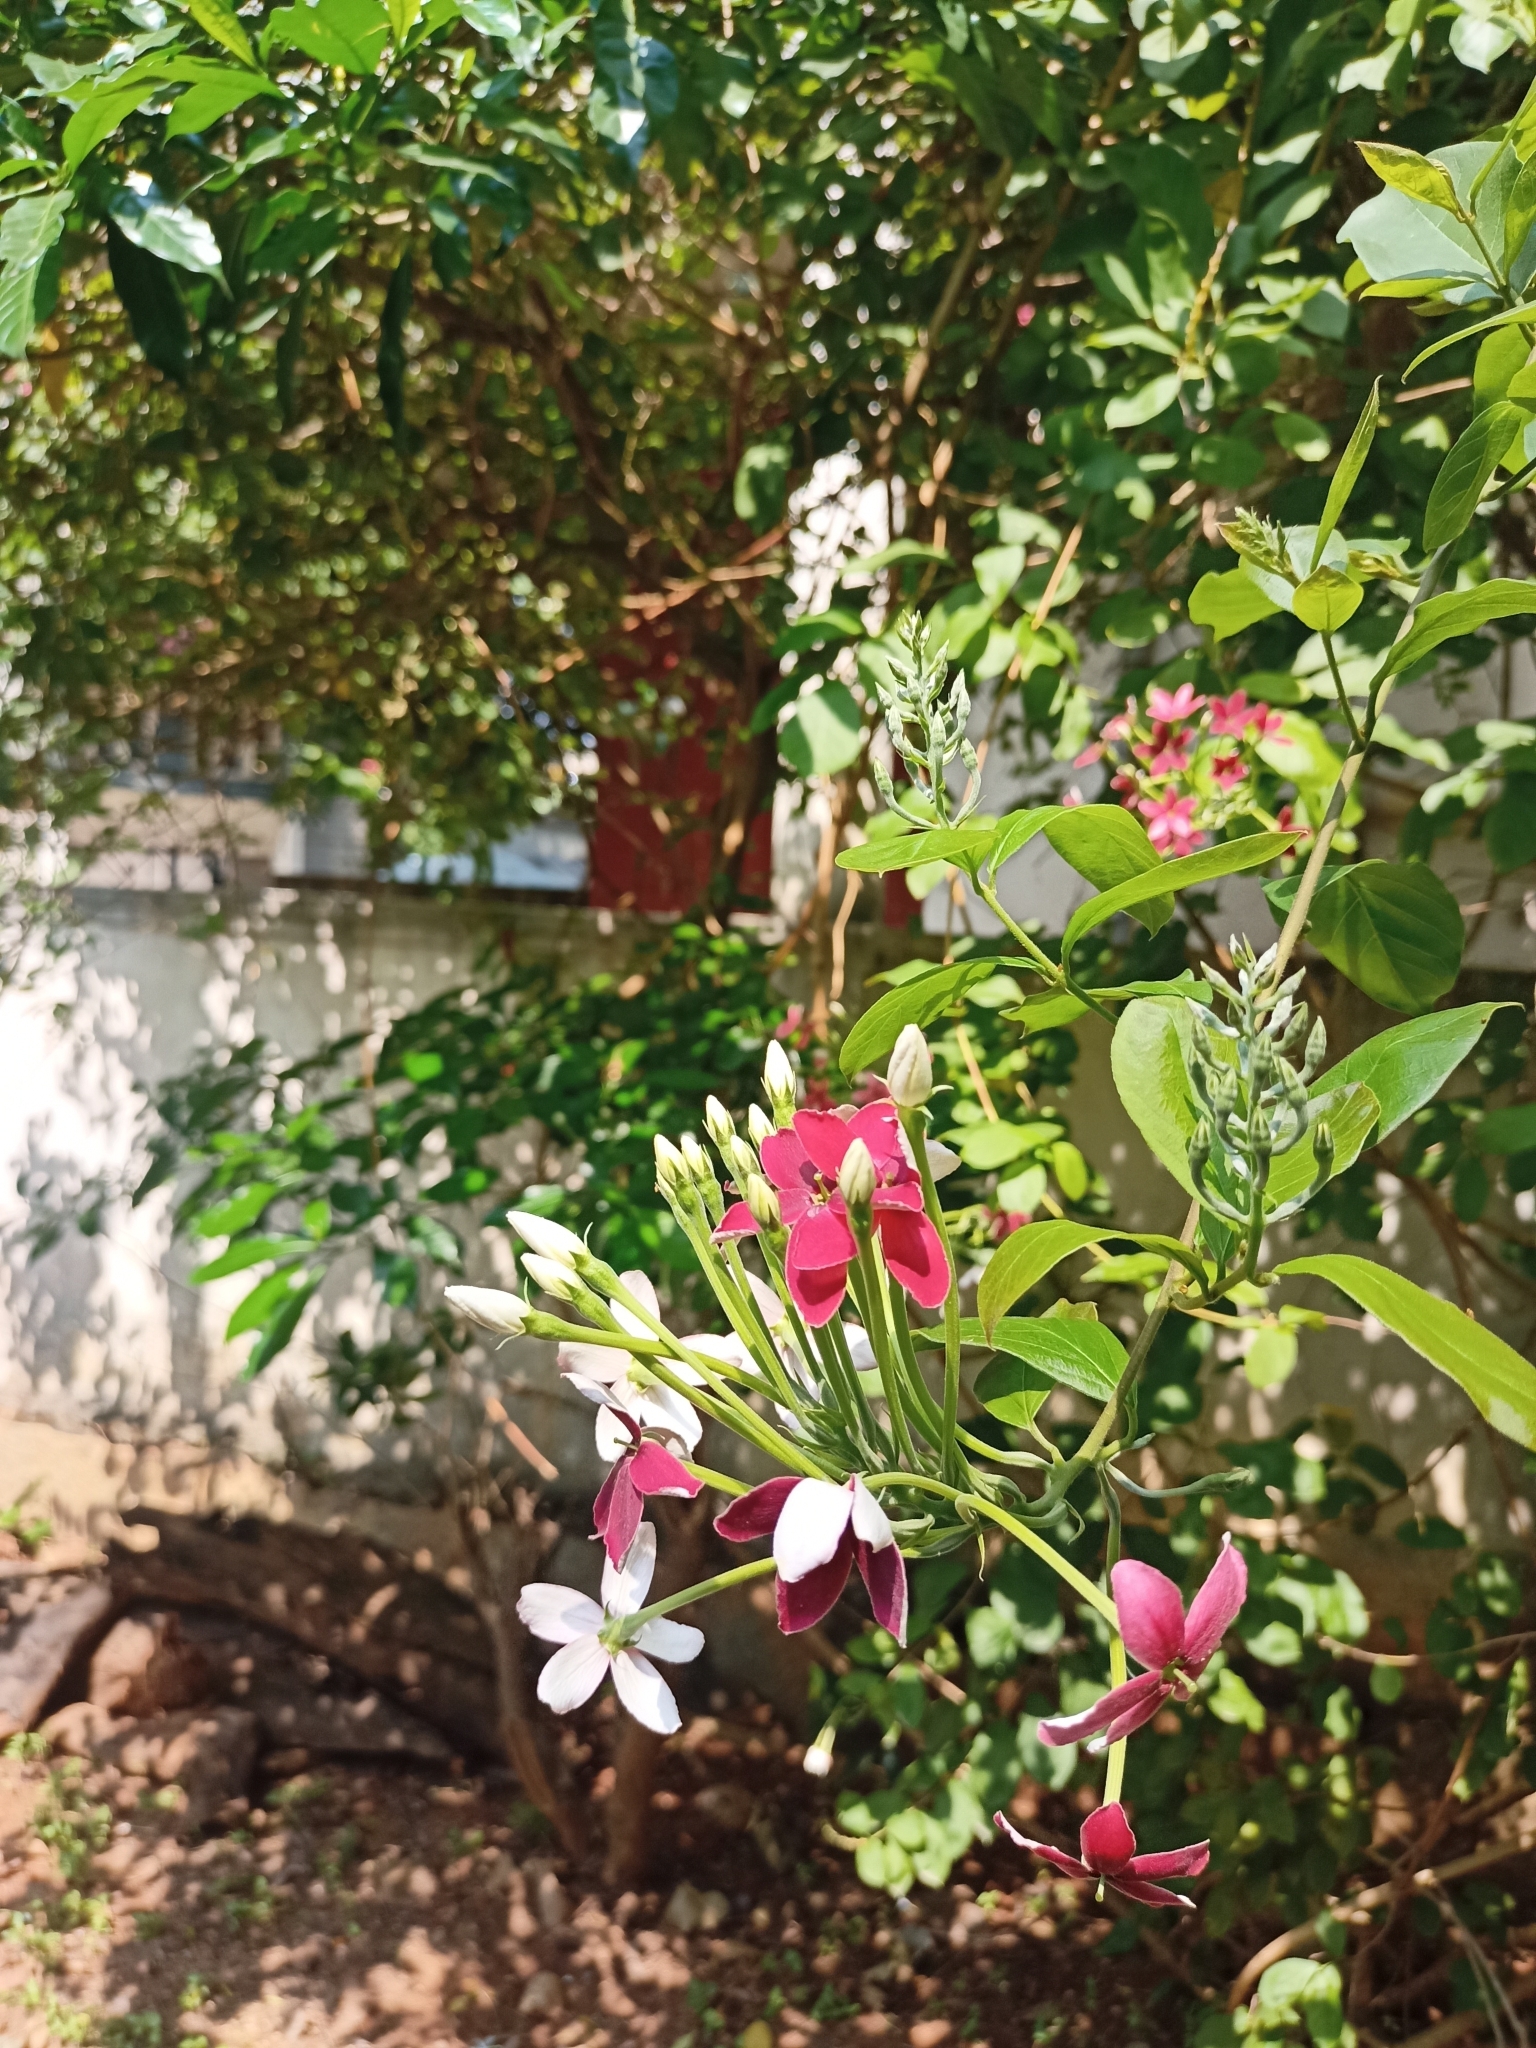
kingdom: Plantae
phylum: Tracheophyta
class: Magnoliopsida
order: Myrtales
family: Combretaceae
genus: Combretum
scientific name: Combretum indicum
